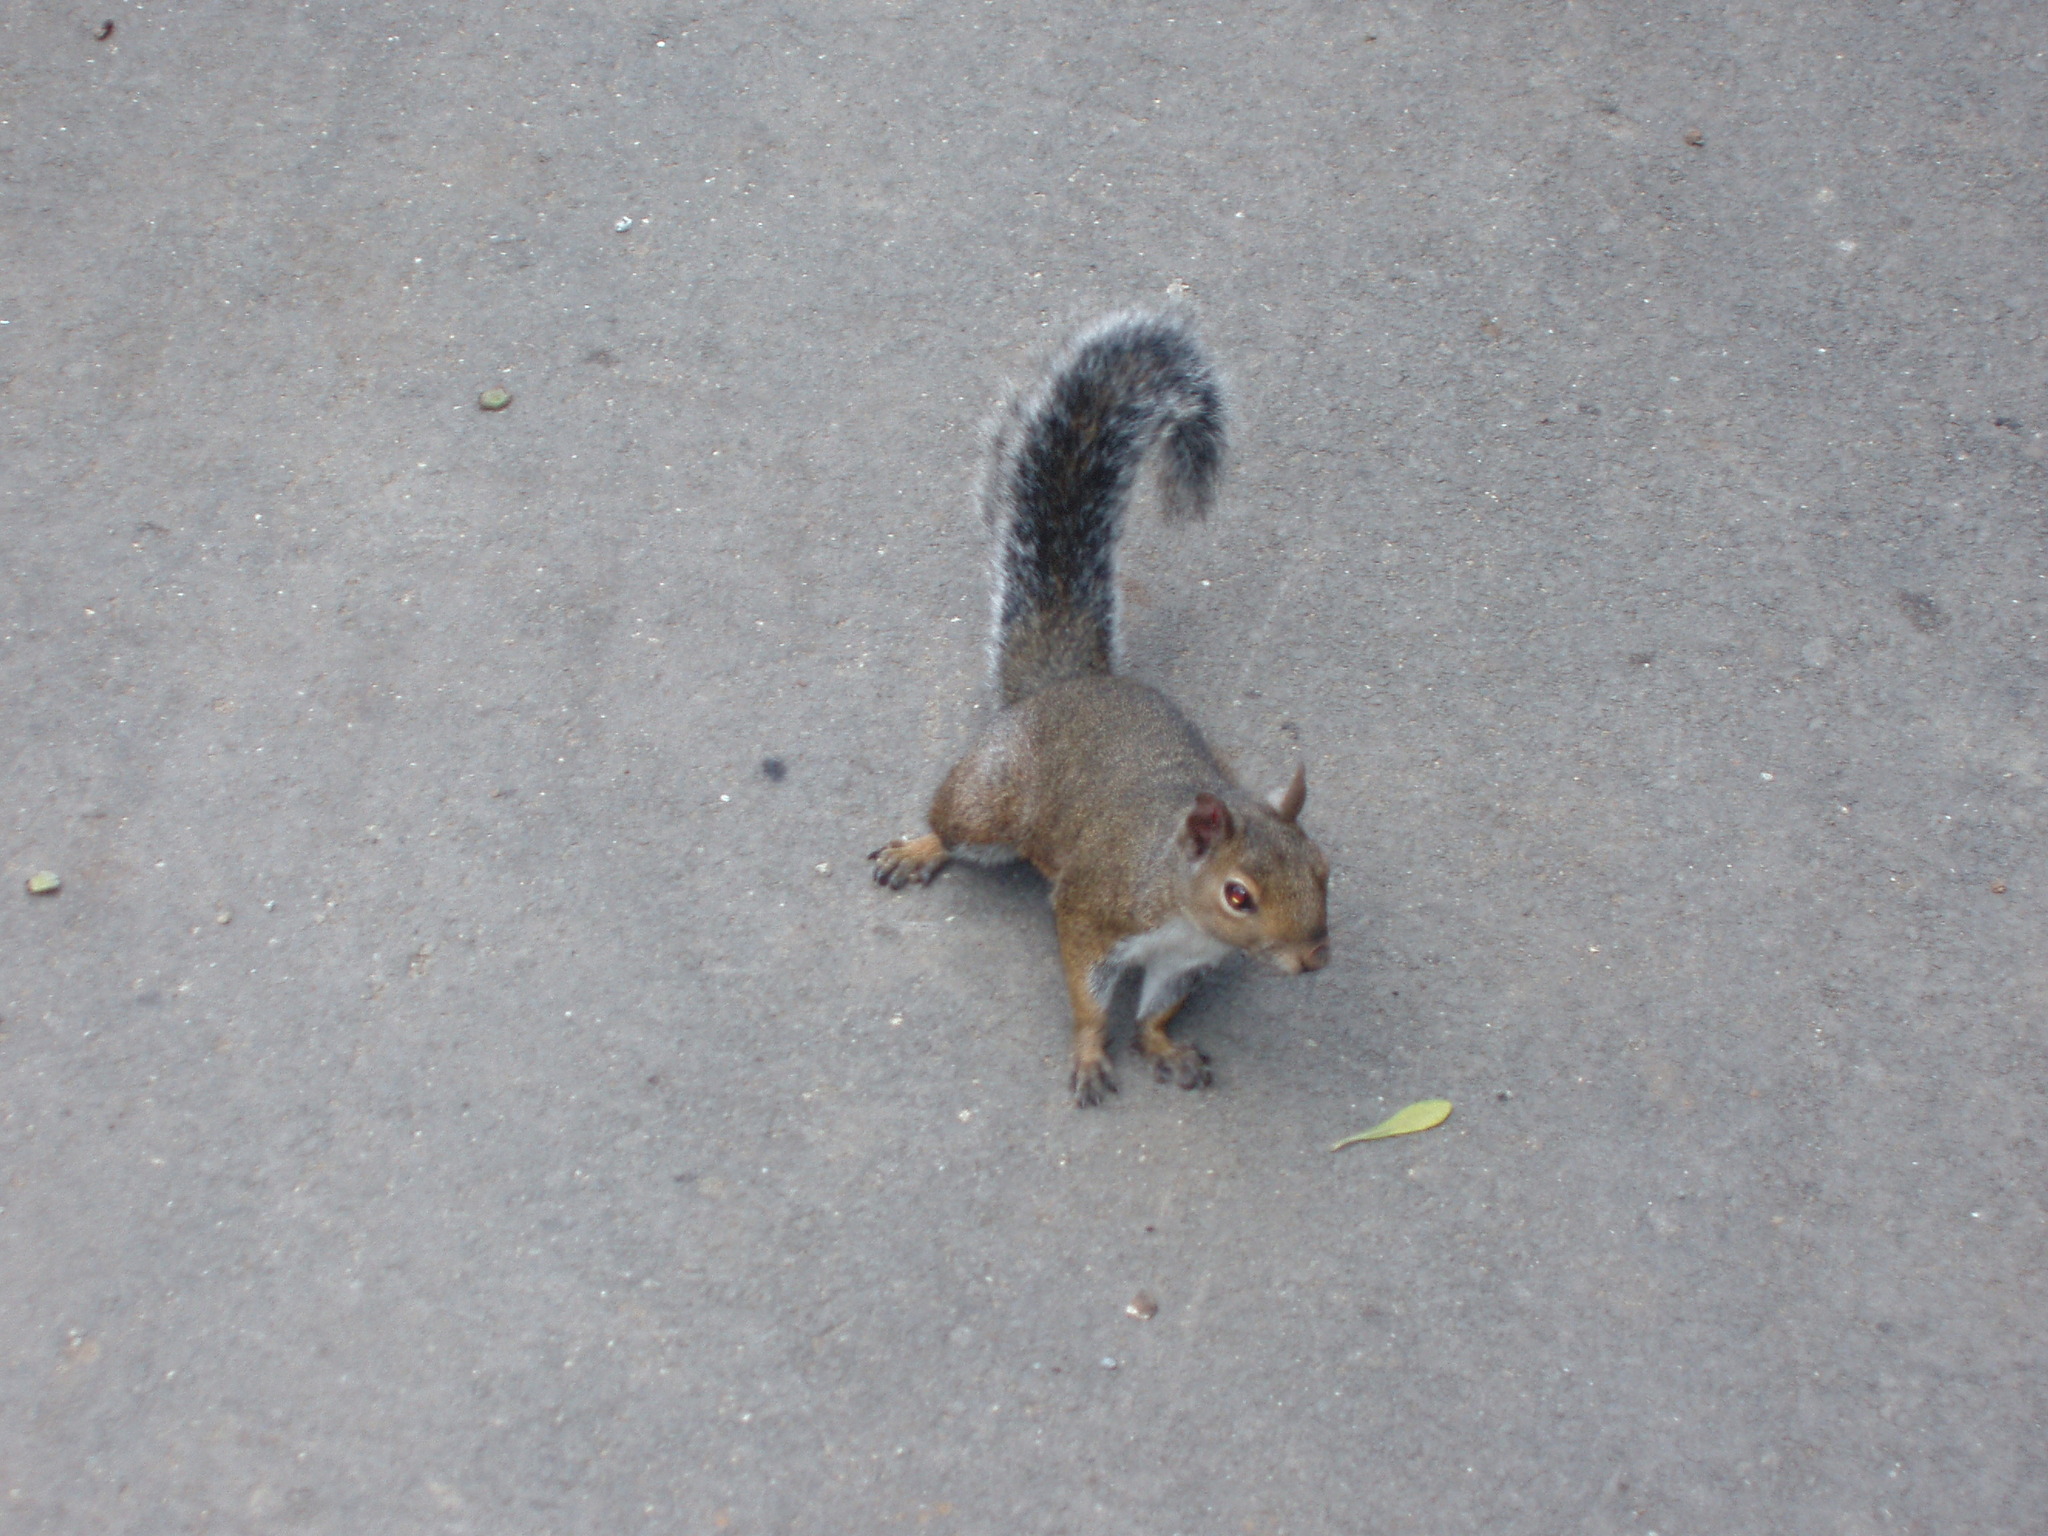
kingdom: Animalia
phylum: Chordata
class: Mammalia
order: Rodentia
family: Sciuridae
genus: Sciurus
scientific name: Sciurus carolinensis
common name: Eastern gray squirrel
